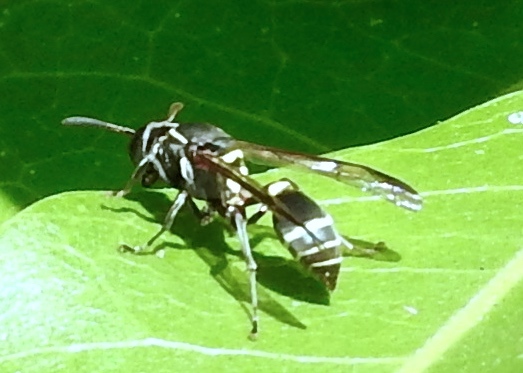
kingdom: Animalia
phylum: Arthropoda
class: Insecta
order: Hymenoptera
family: Vespidae
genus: Myrapetra
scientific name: Myrapetra
